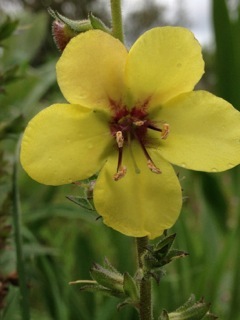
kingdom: Plantae
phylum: Tracheophyta
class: Magnoliopsida
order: Lamiales
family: Scrophulariaceae
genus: Verbascum
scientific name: Verbascum virgatum
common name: Twiggy mullein
